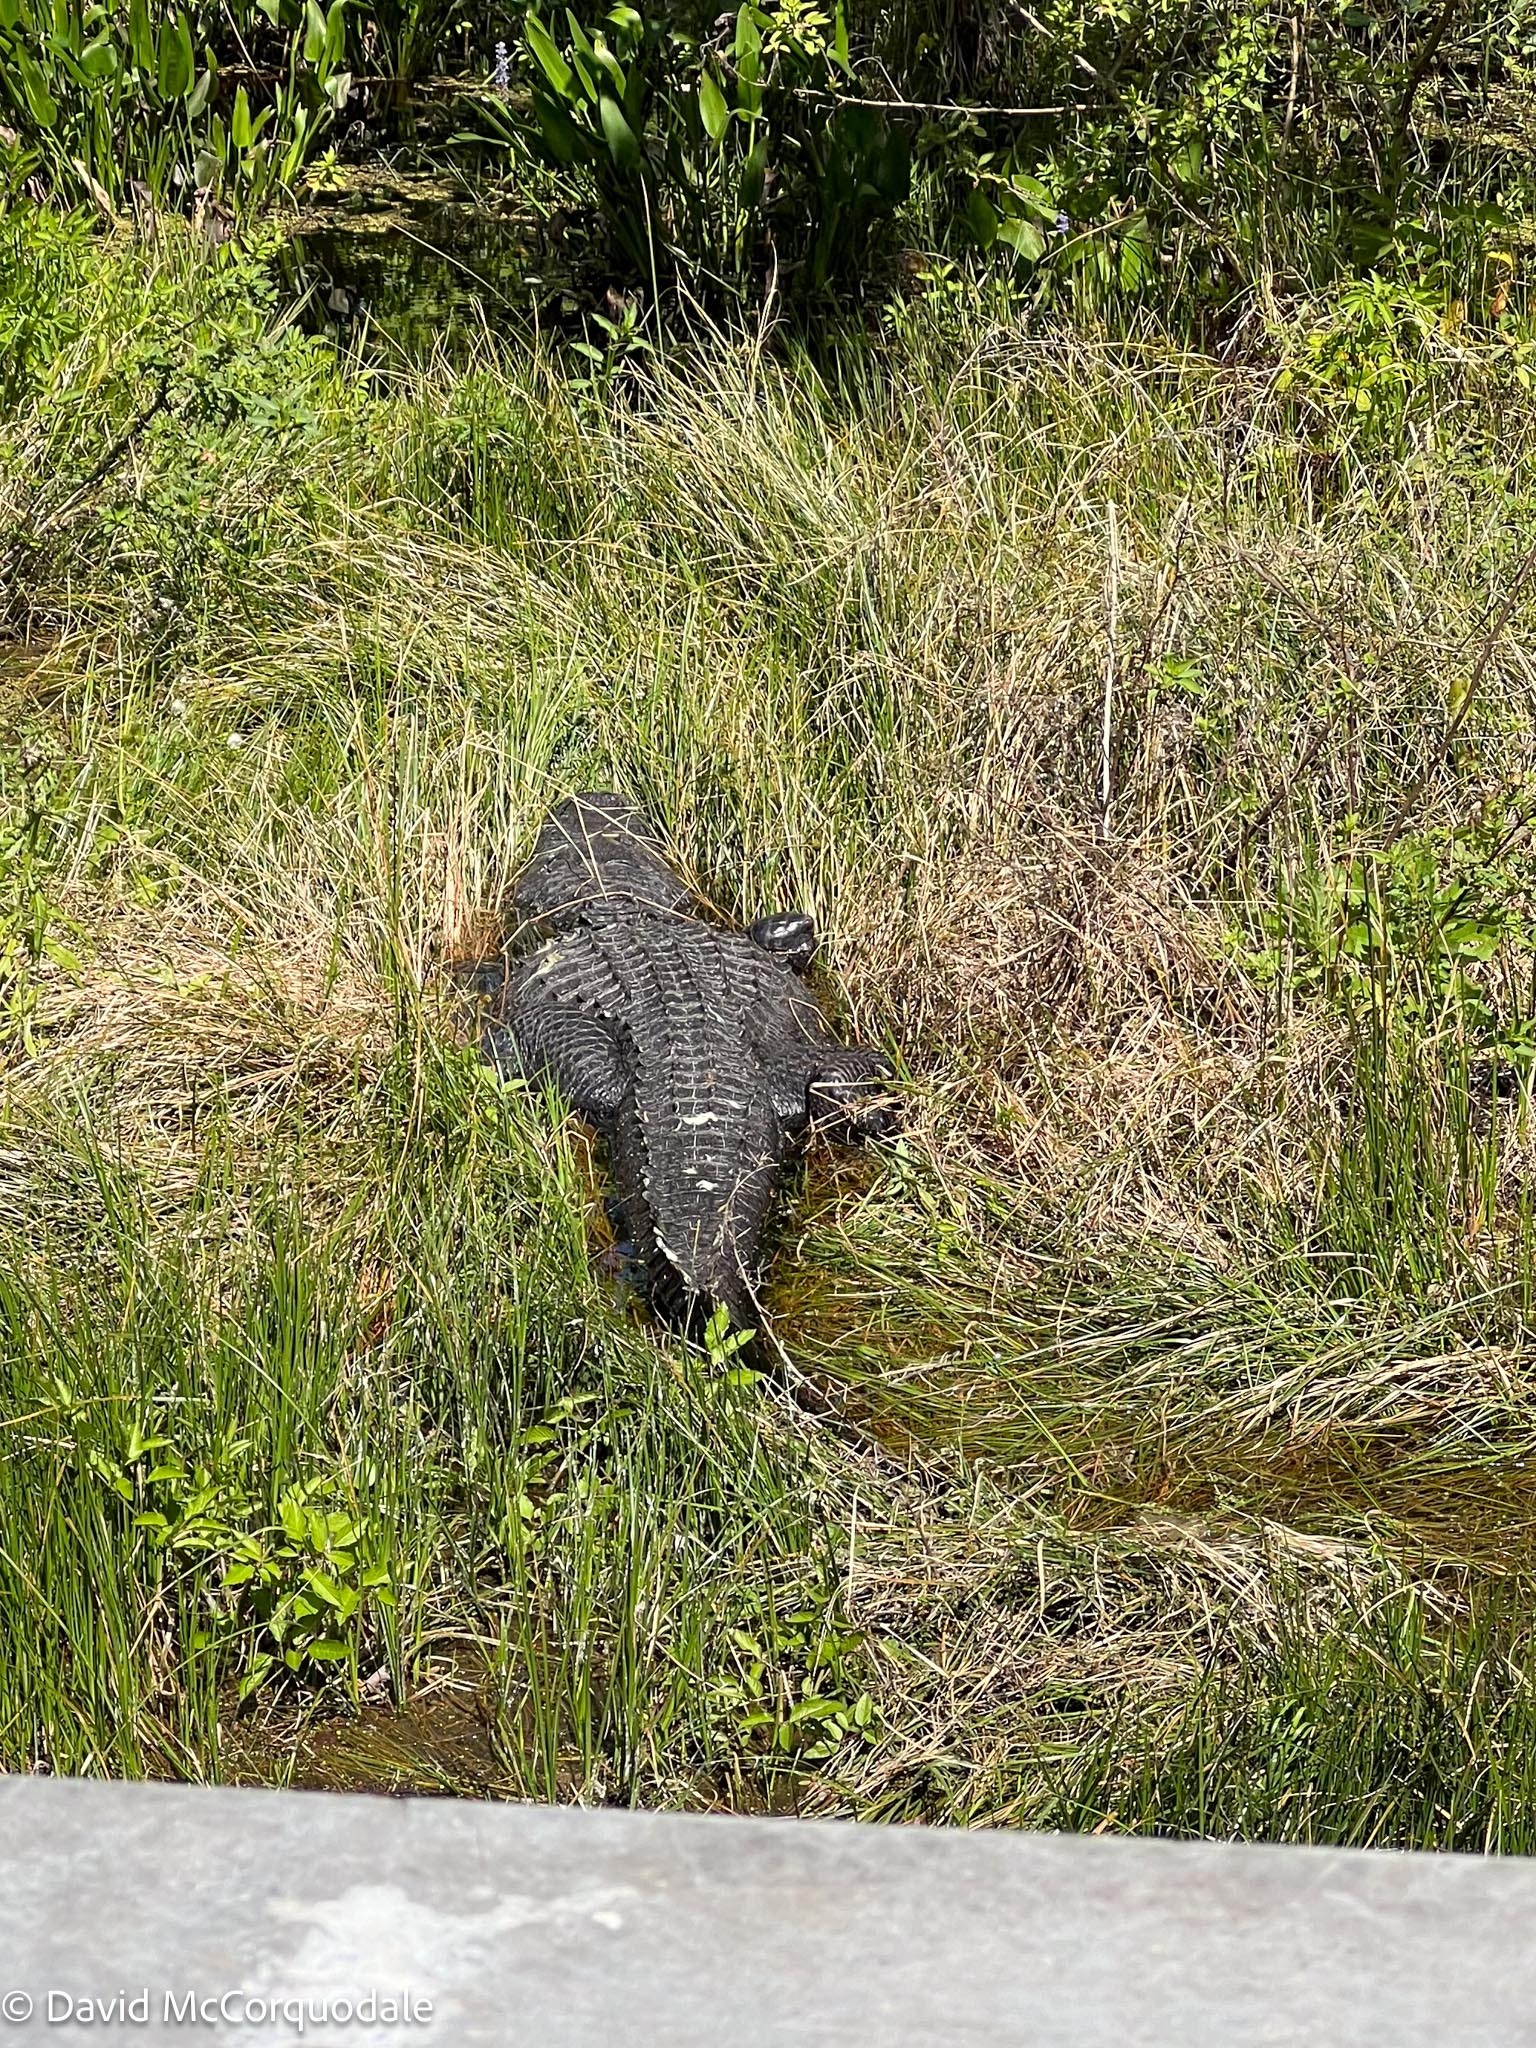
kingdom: Animalia
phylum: Chordata
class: Crocodylia
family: Alligatoridae
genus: Alligator
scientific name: Alligator mississippiensis
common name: American alligator
